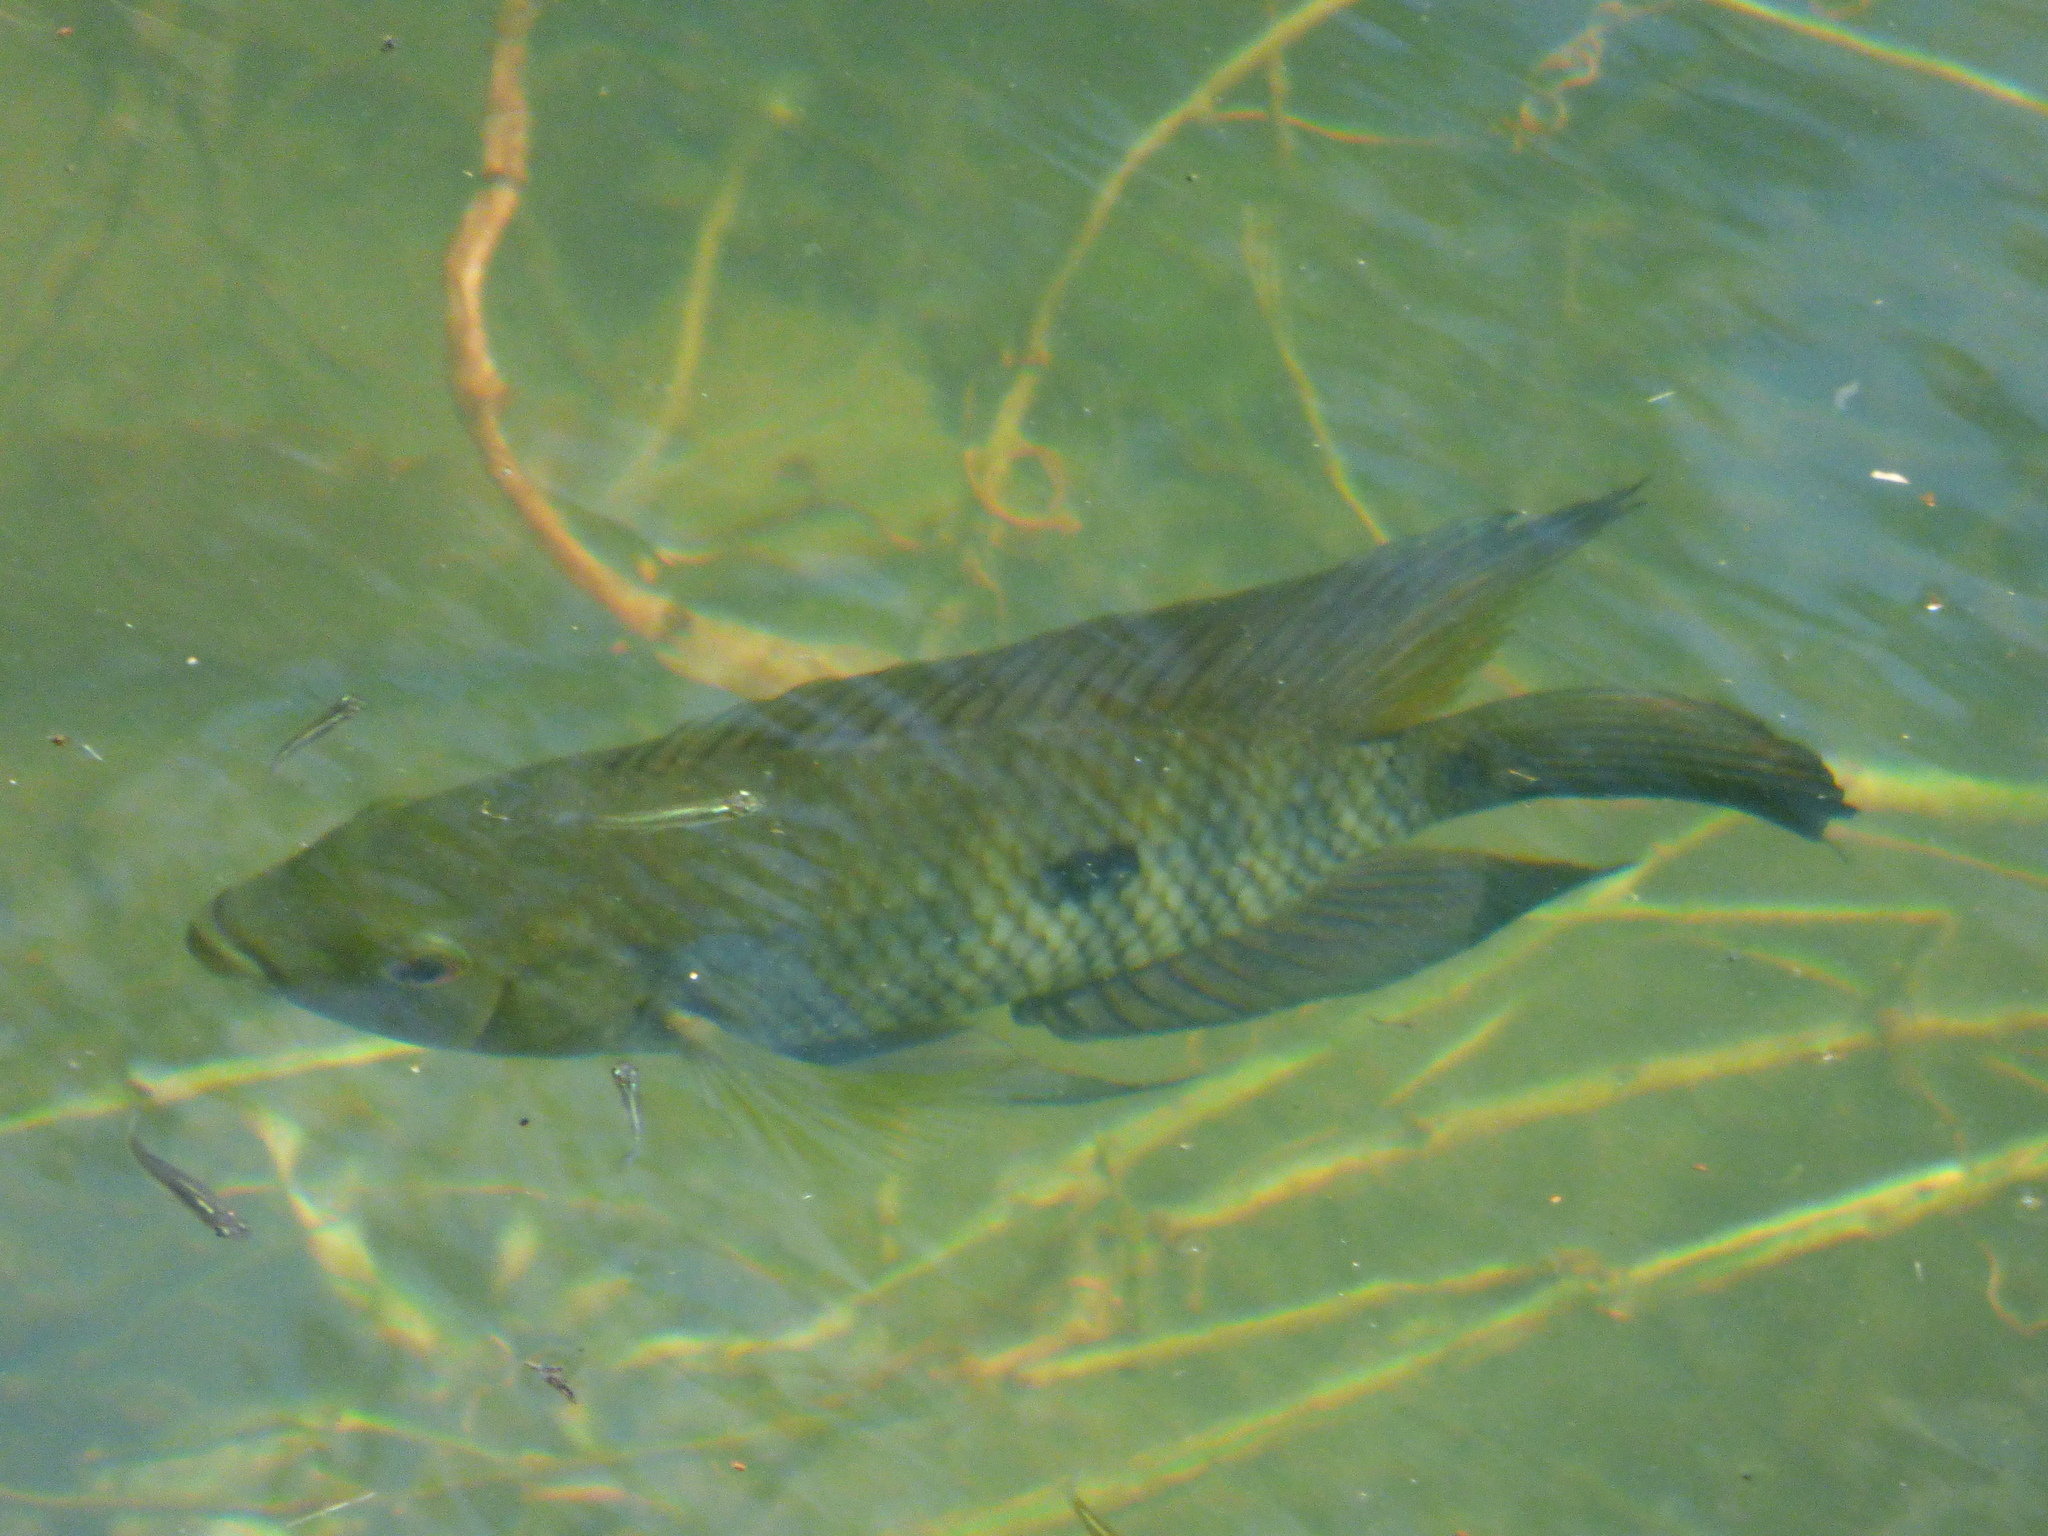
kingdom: Animalia
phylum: Chordata
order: Perciformes
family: Cichlidae
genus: Australoheros
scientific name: Australoheros facetus
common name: Chameleon cichlid
